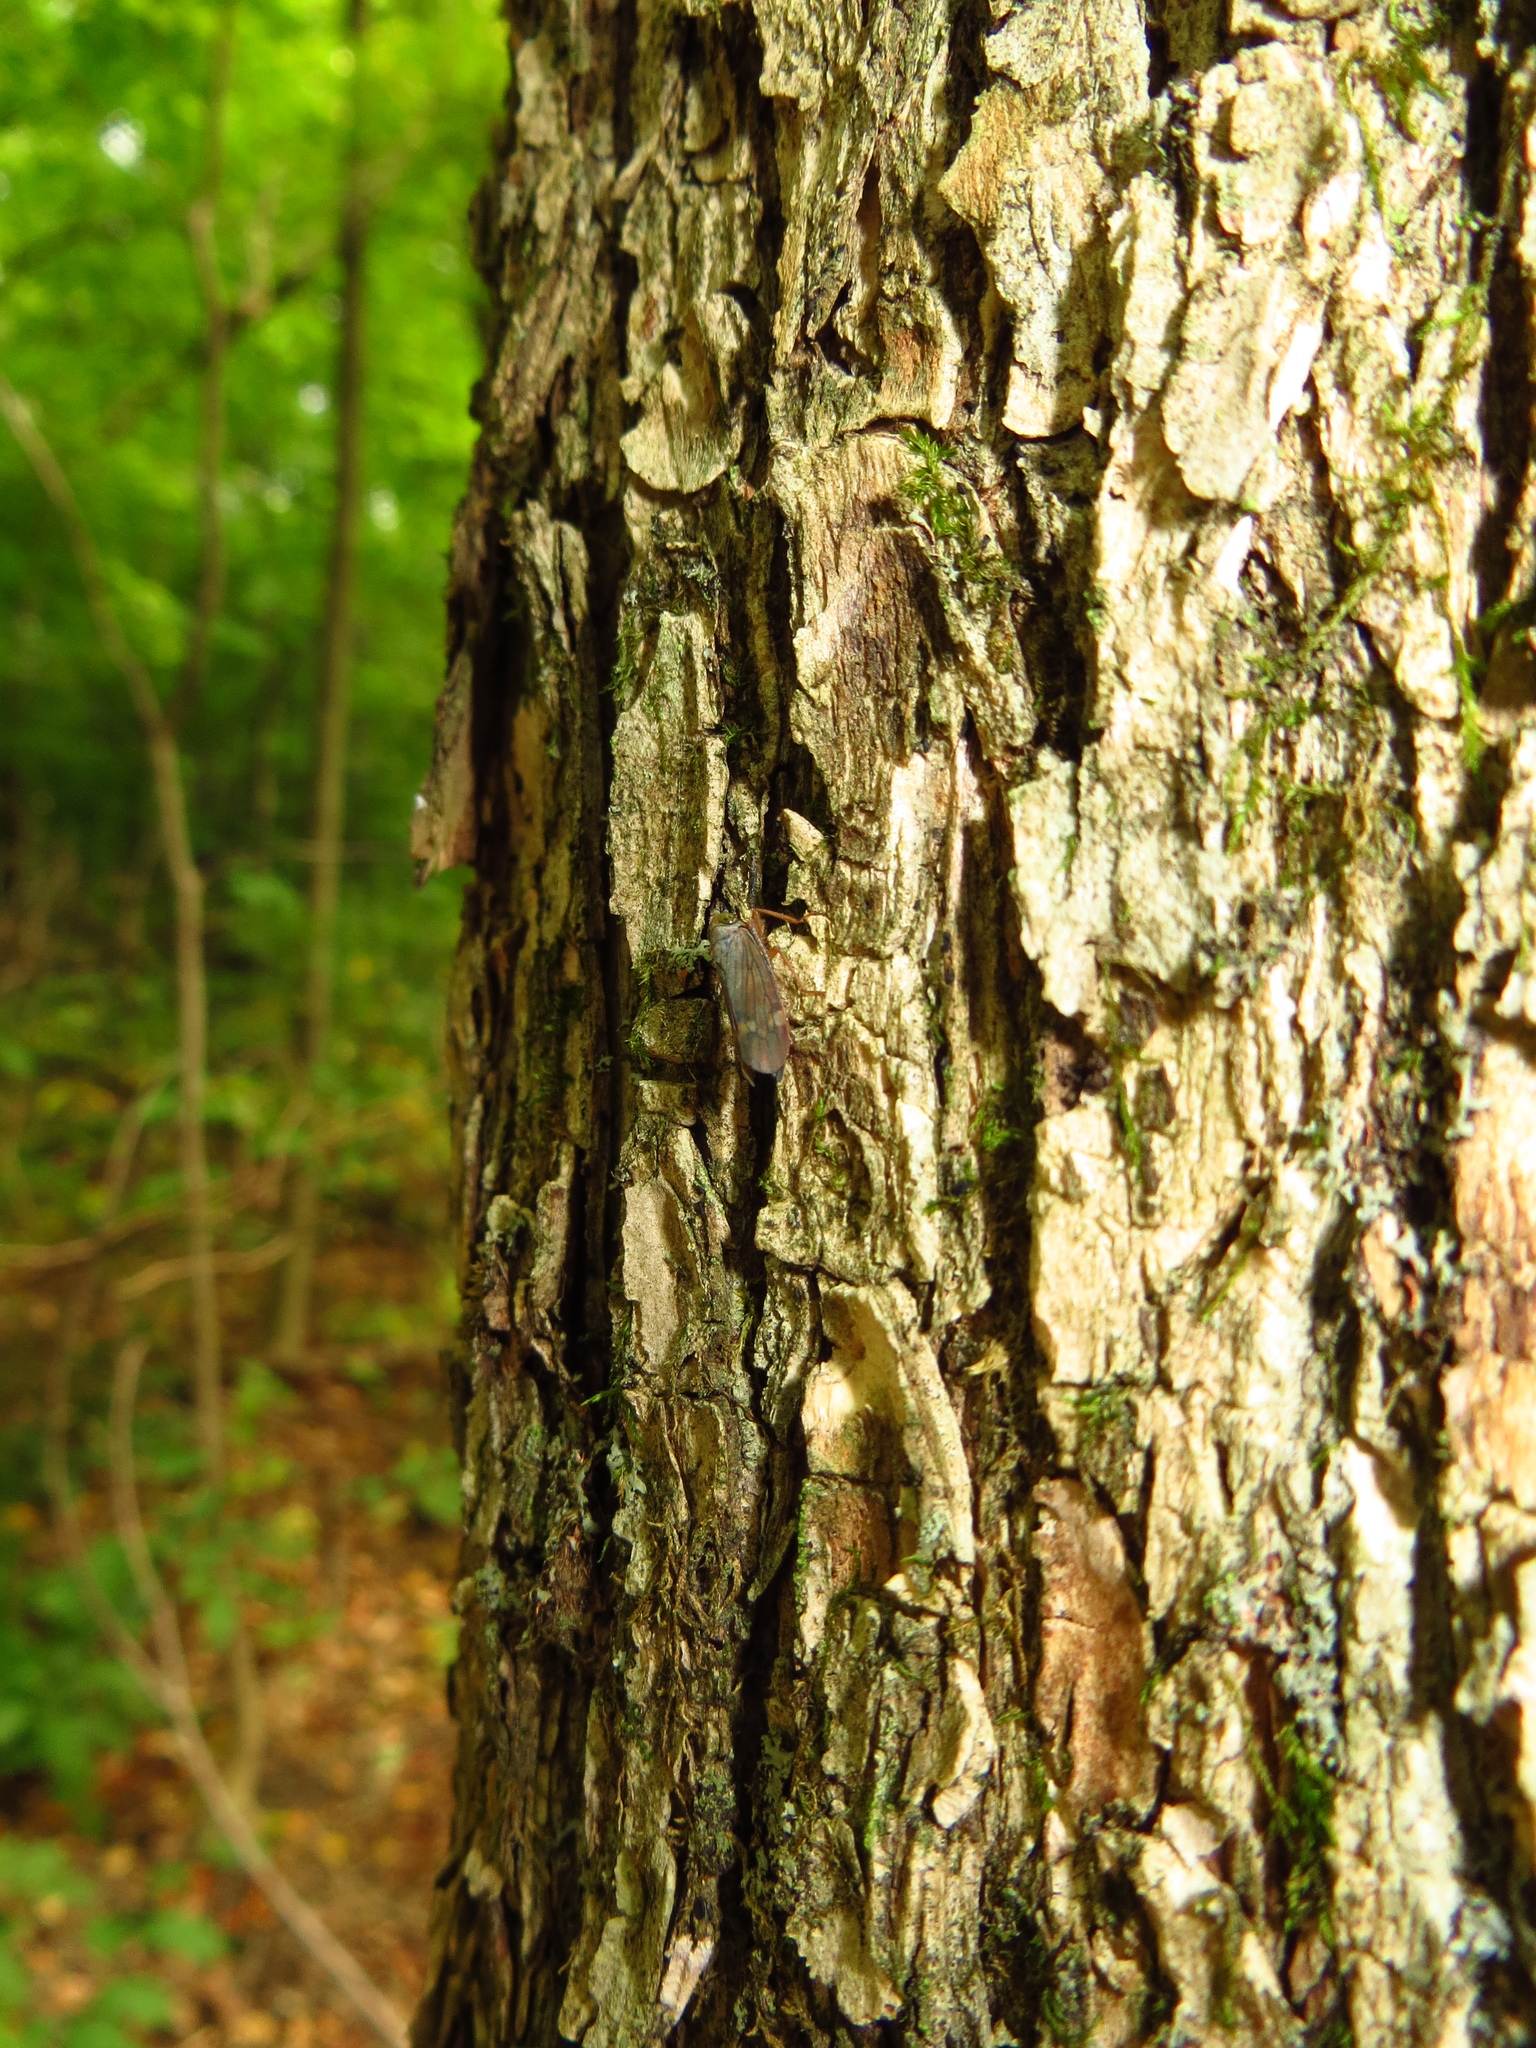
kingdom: Animalia
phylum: Arthropoda
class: Insecta
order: Hemiptera
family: Cicadellidae
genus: Jikradia
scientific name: Jikradia olitoria
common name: Coppery leafhopper
